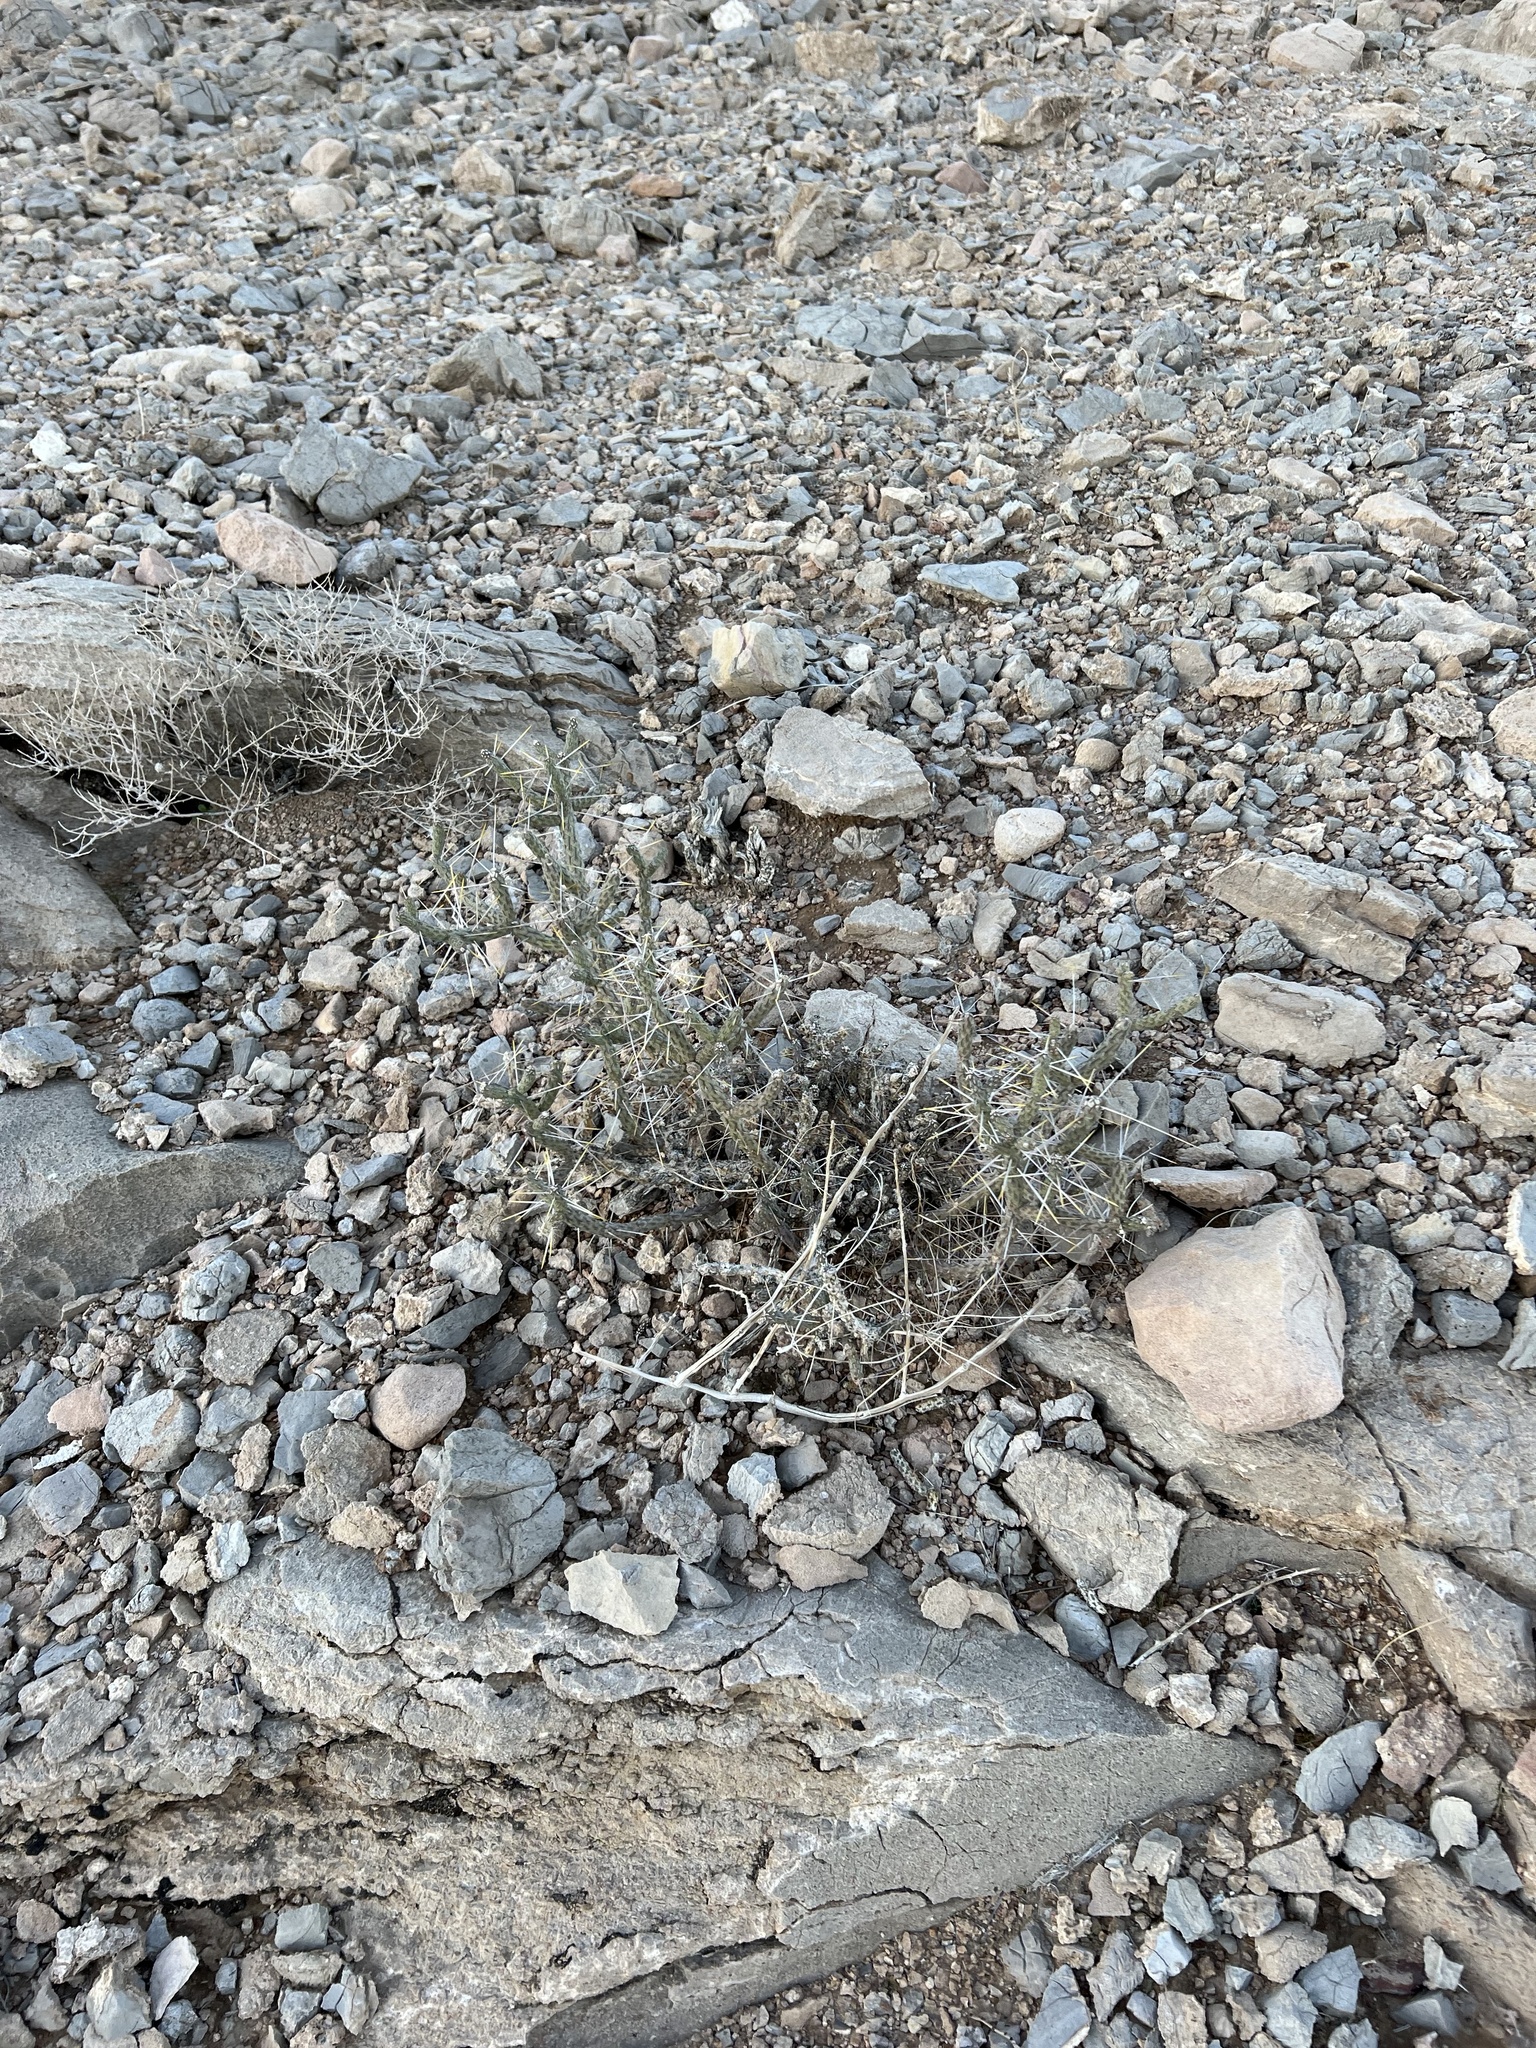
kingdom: Plantae
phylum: Tracheophyta
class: Magnoliopsida
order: Caryophyllales
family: Cactaceae
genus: Cylindropuntia
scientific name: Cylindropuntia ramosissima
